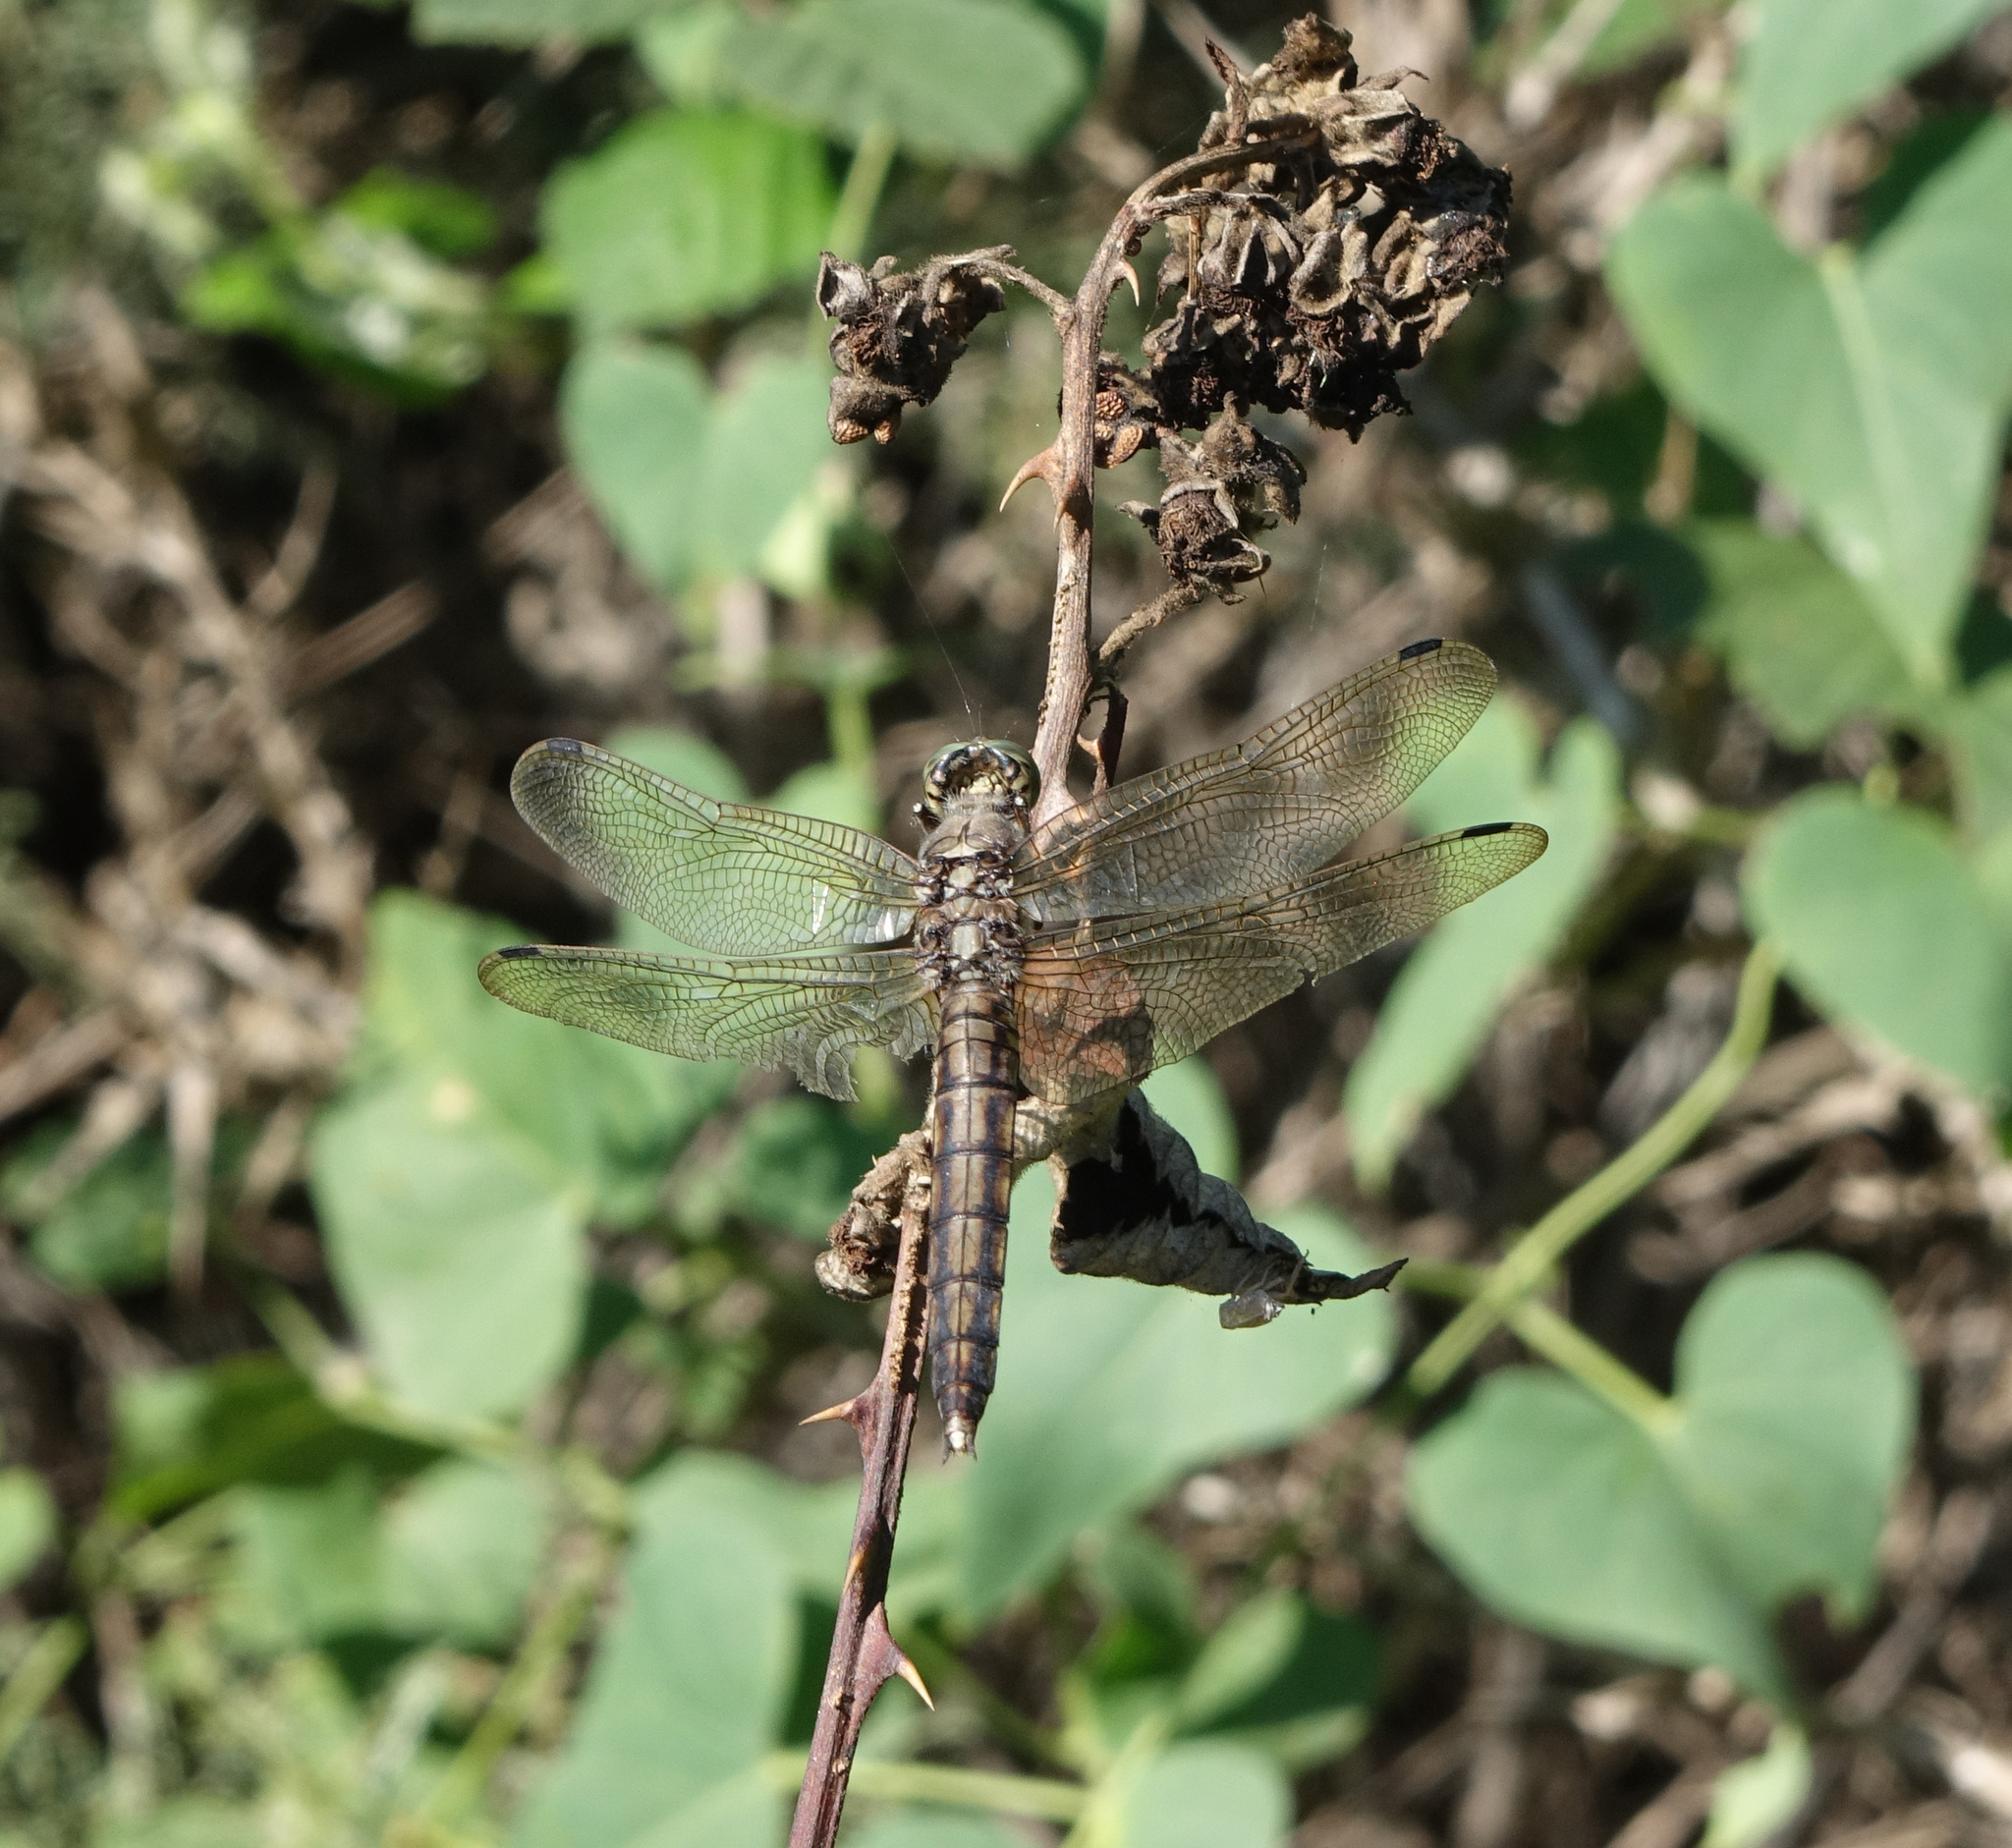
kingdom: Animalia
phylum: Arthropoda
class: Insecta
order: Odonata
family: Libellulidae
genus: Orthetrum
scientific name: Orthetrum cancellatum
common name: Black-tailed skimmer
